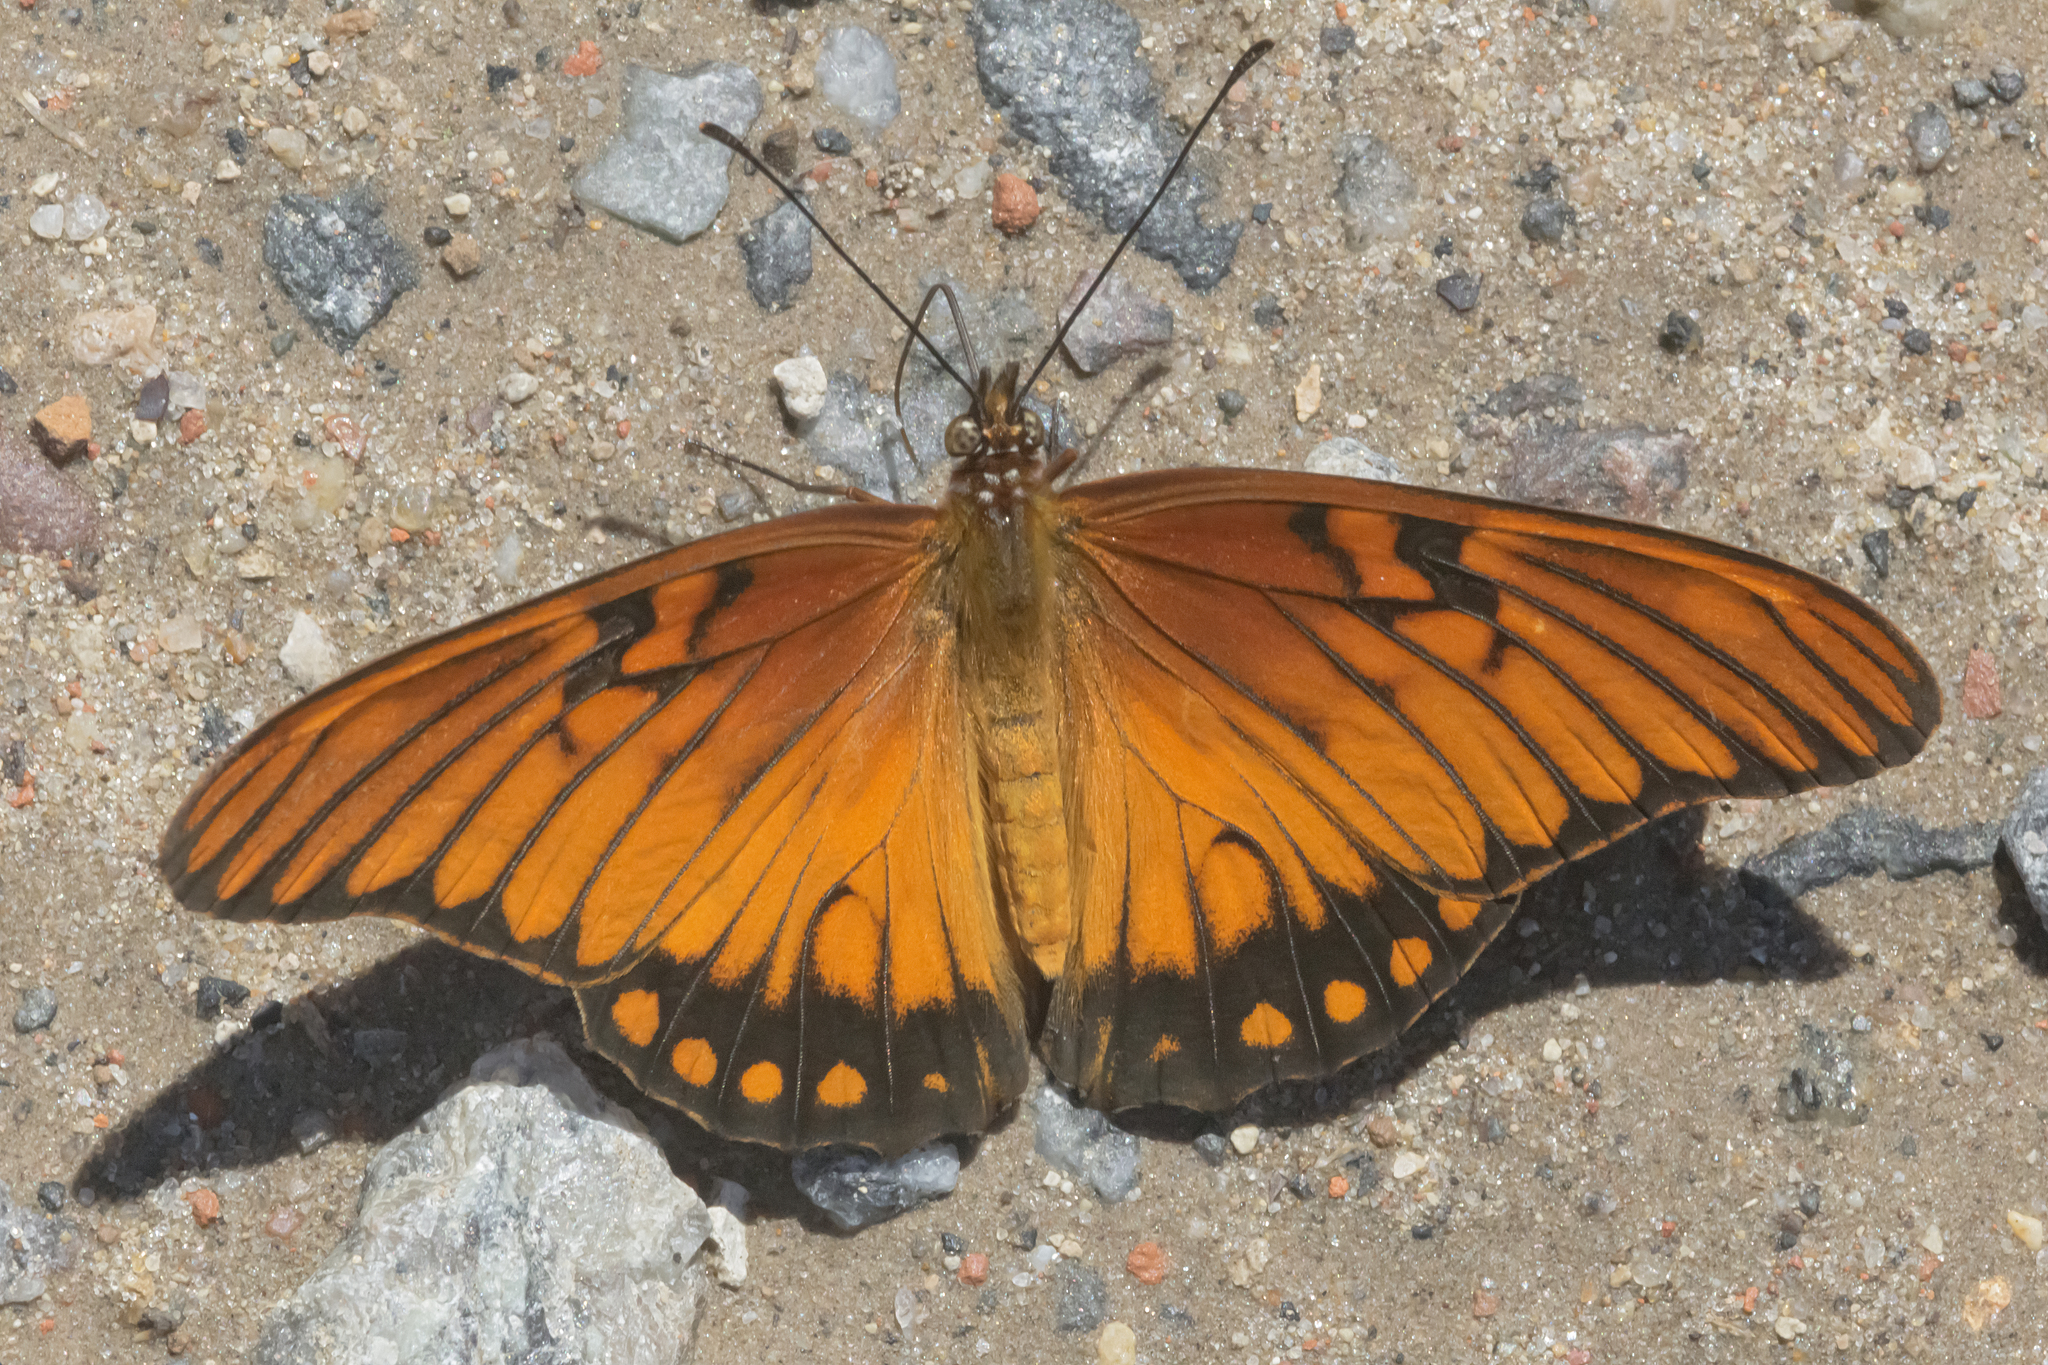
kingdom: Animalia
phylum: Arthropoda
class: Insecta
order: Lepidoptera
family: Nymphalidae
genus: Dione
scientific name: Dione moneta
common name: Mexican silverspot
